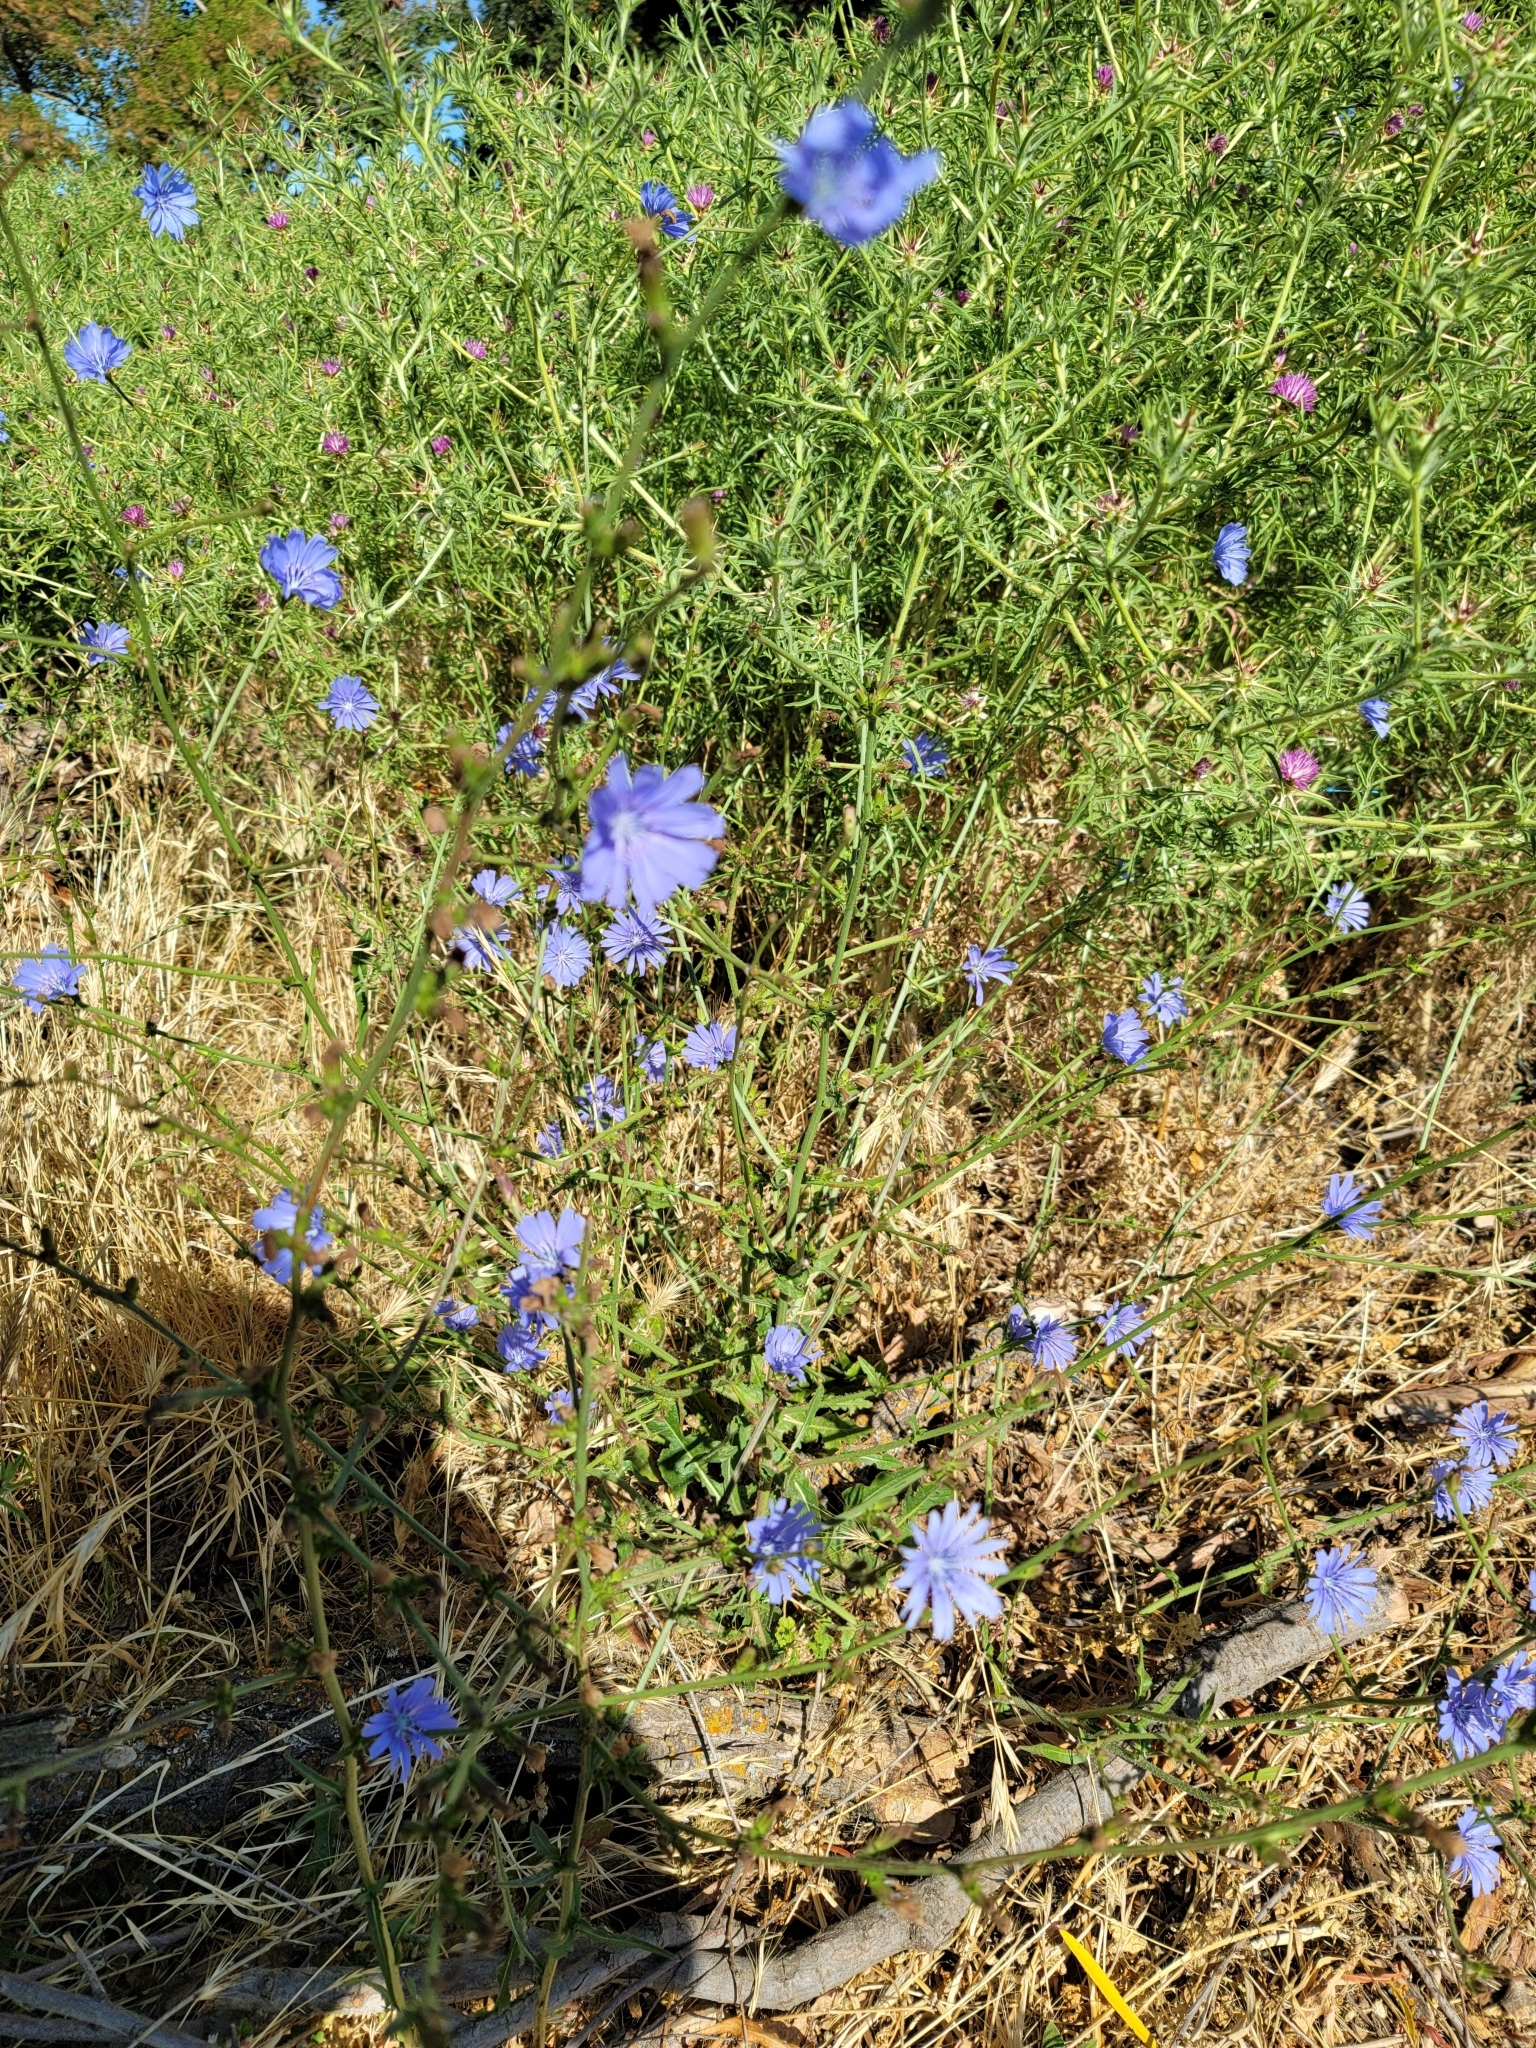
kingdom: Plantae
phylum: Tracheophyta
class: Magnoliopsida
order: Asterales
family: Asteraceae
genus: Cichorium
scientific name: Cichorium intybus
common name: Chicory
